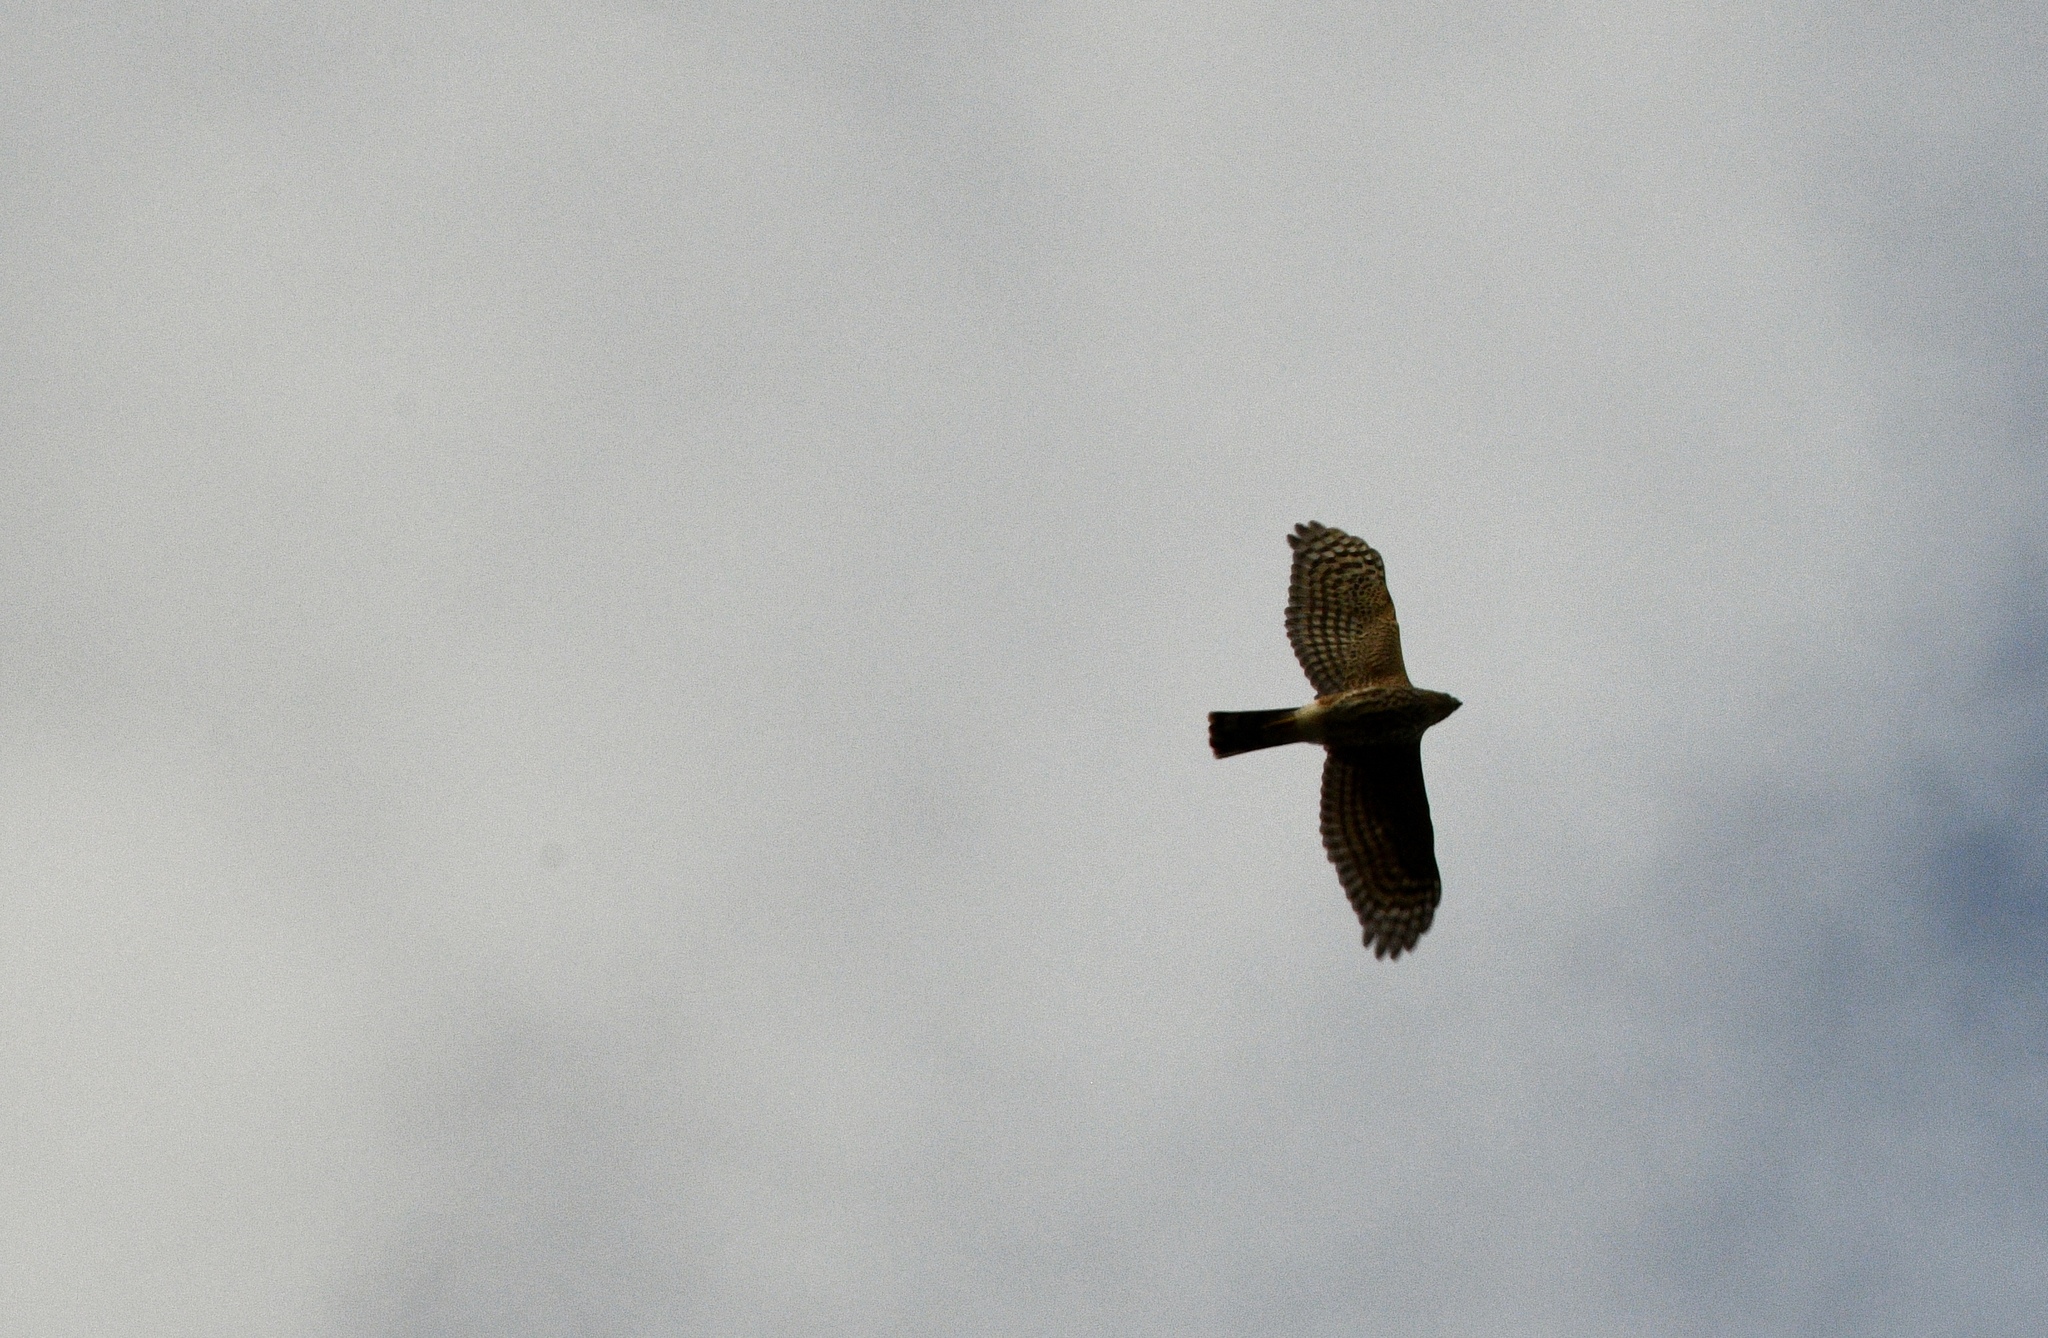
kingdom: Animalia
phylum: Chordata
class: Aves
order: Accipitriformes
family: Accipitridae
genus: Accipiter
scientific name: Accipiter striatus
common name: Sharp-shinned hawk
